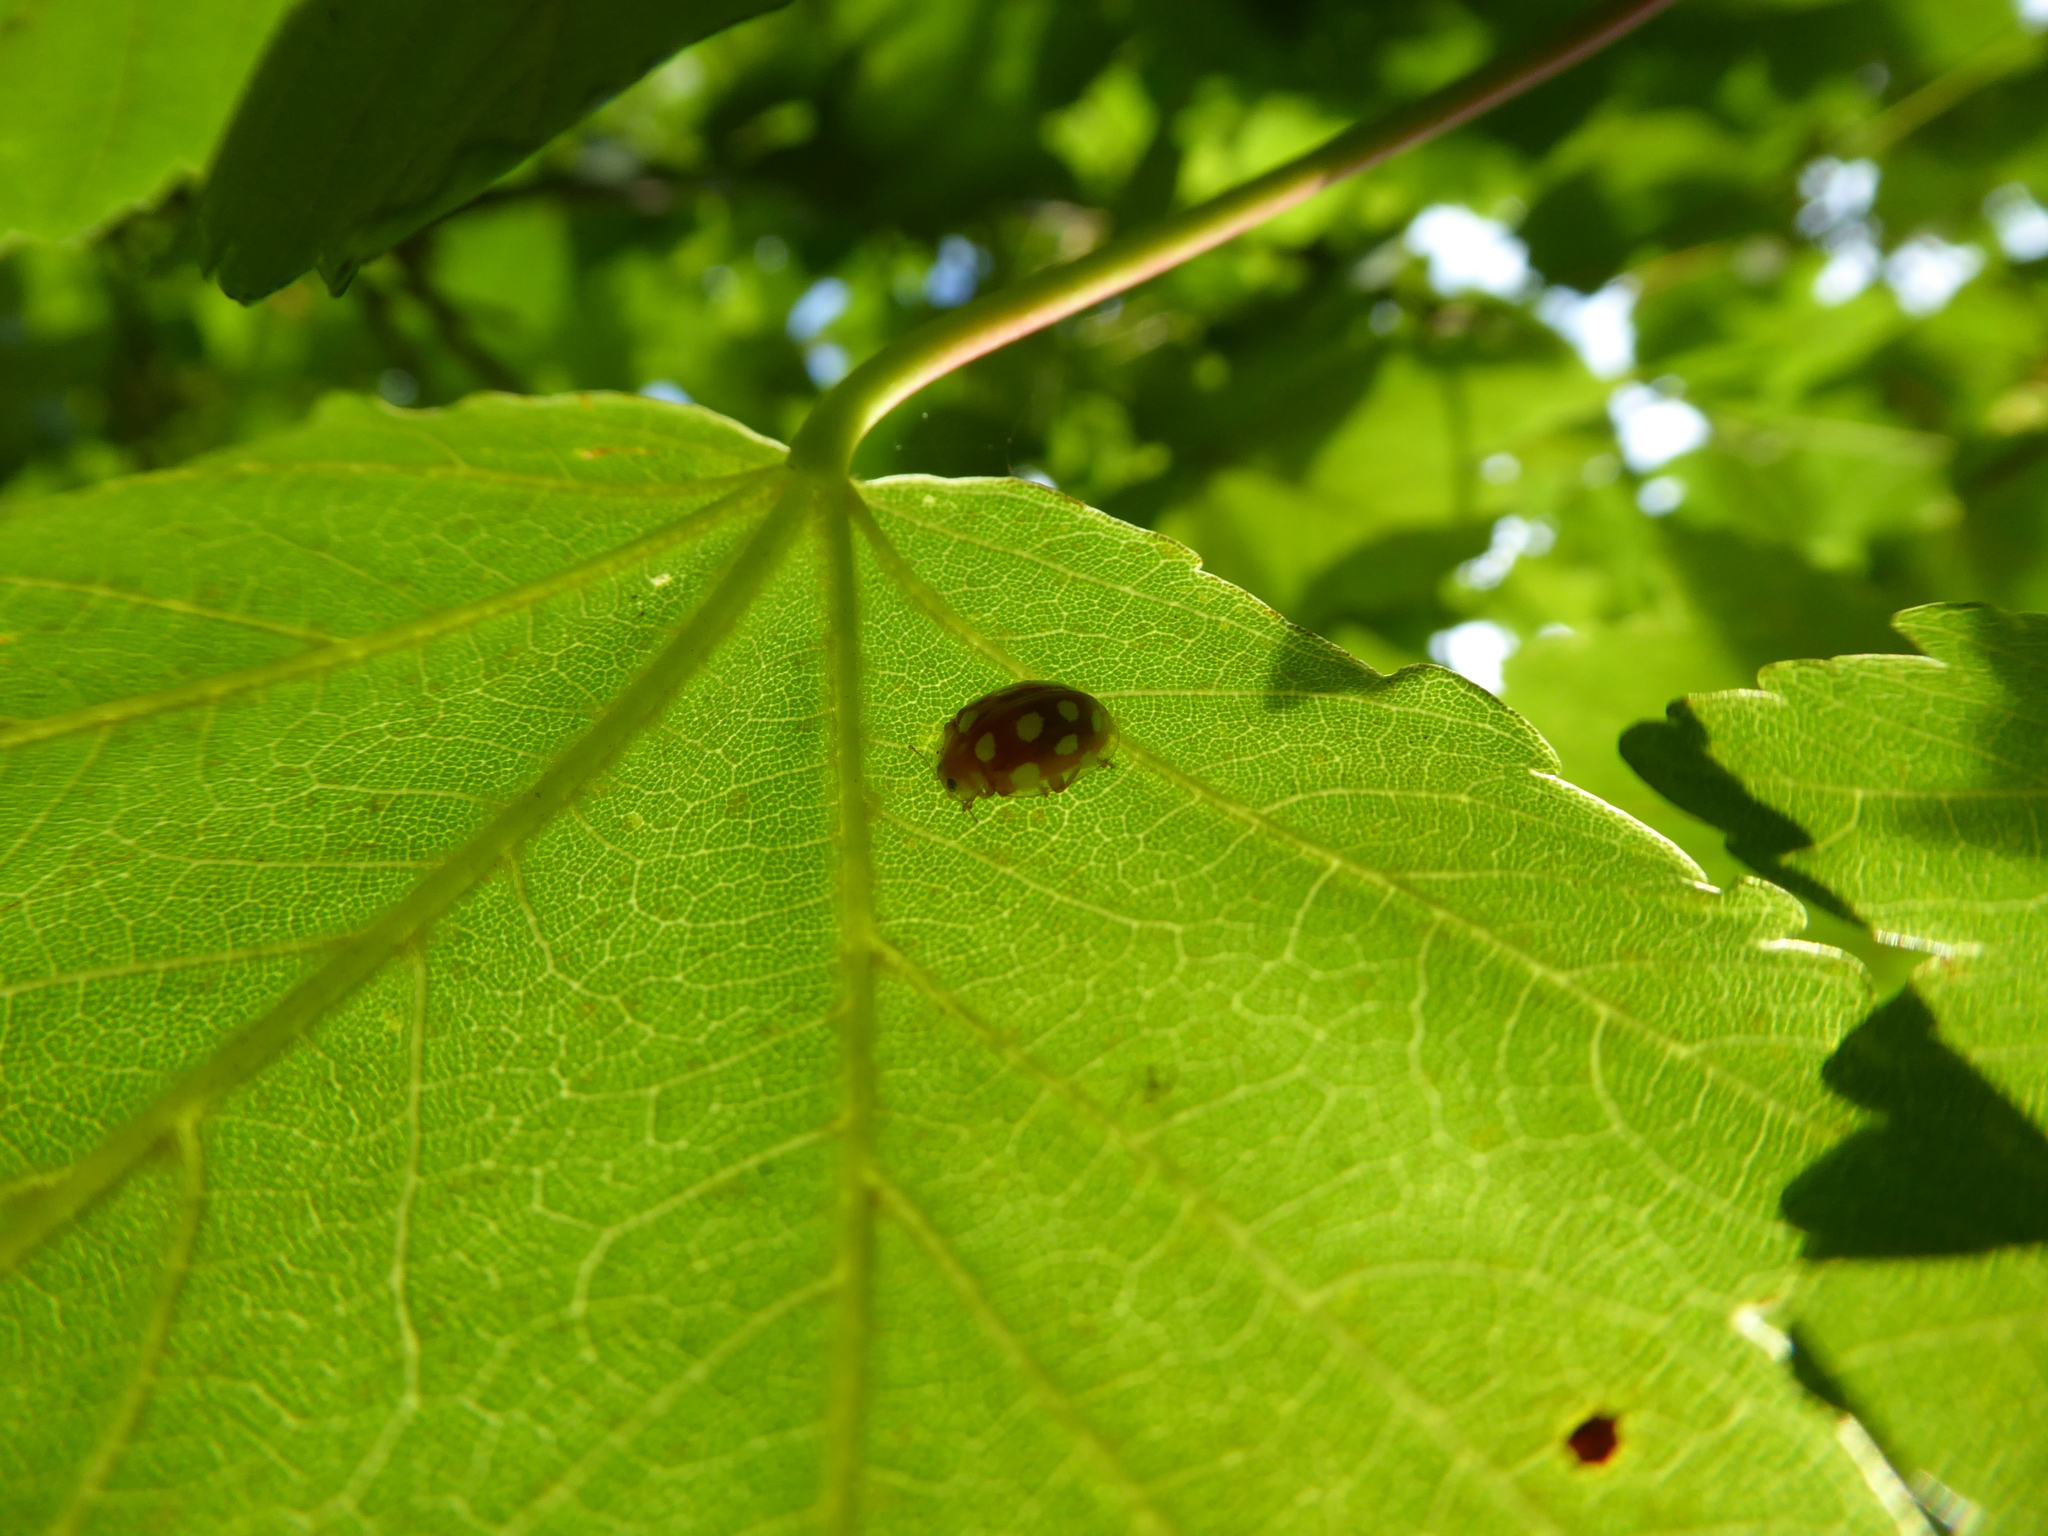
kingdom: Animalia
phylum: Arthropoda
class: Insecta
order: Coleoptera
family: Coccinellidae
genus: Halyzia
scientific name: Halyzia sedecimguttata
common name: Orange ladybird
